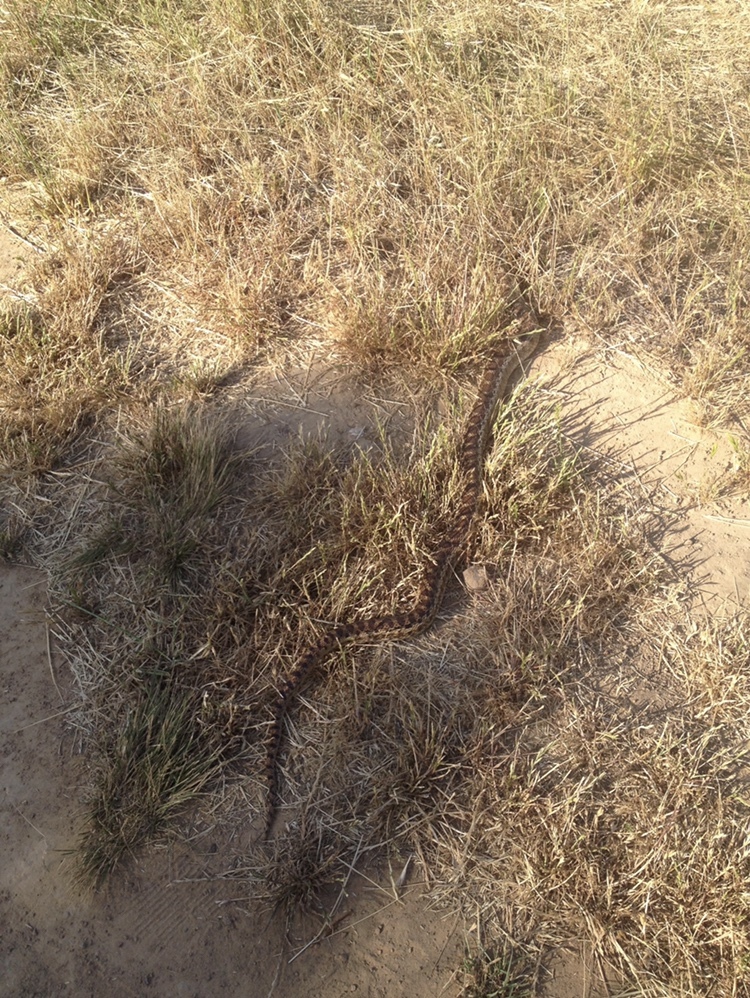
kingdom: Animalia
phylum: Chordata
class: Squamata
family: Colubridae
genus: Pituophis
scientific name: Pituophis catenifer
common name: Gopher snake
